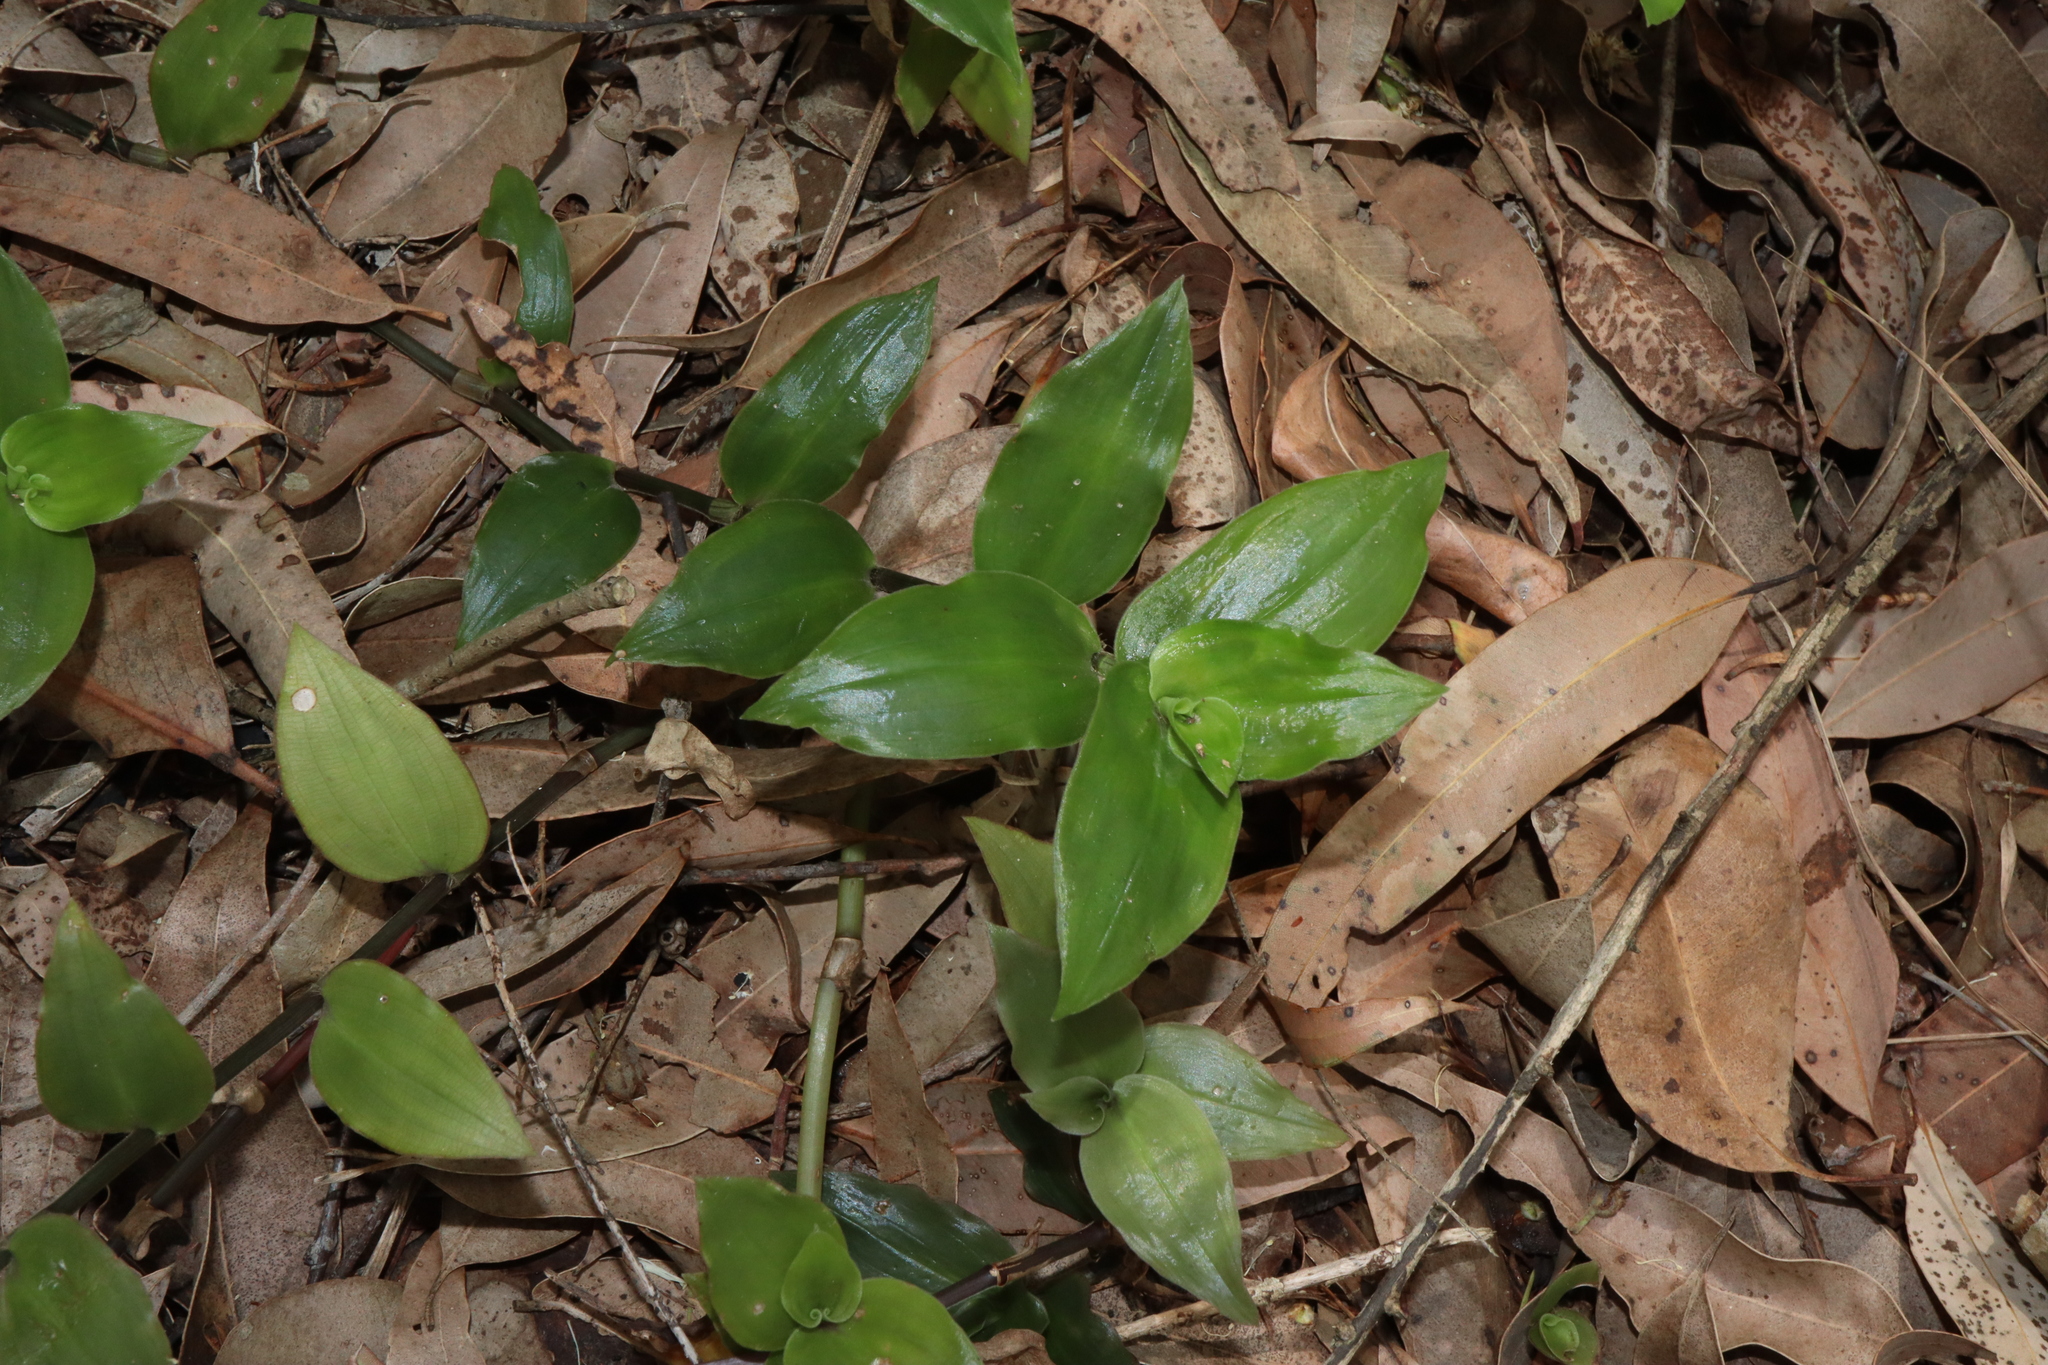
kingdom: Plantae
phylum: Tracheophyta
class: Liliopsida
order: Commelinales
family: Commelinaceae
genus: Tradescantia
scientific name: Tradescantia fluminensis
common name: Wandering-jew
